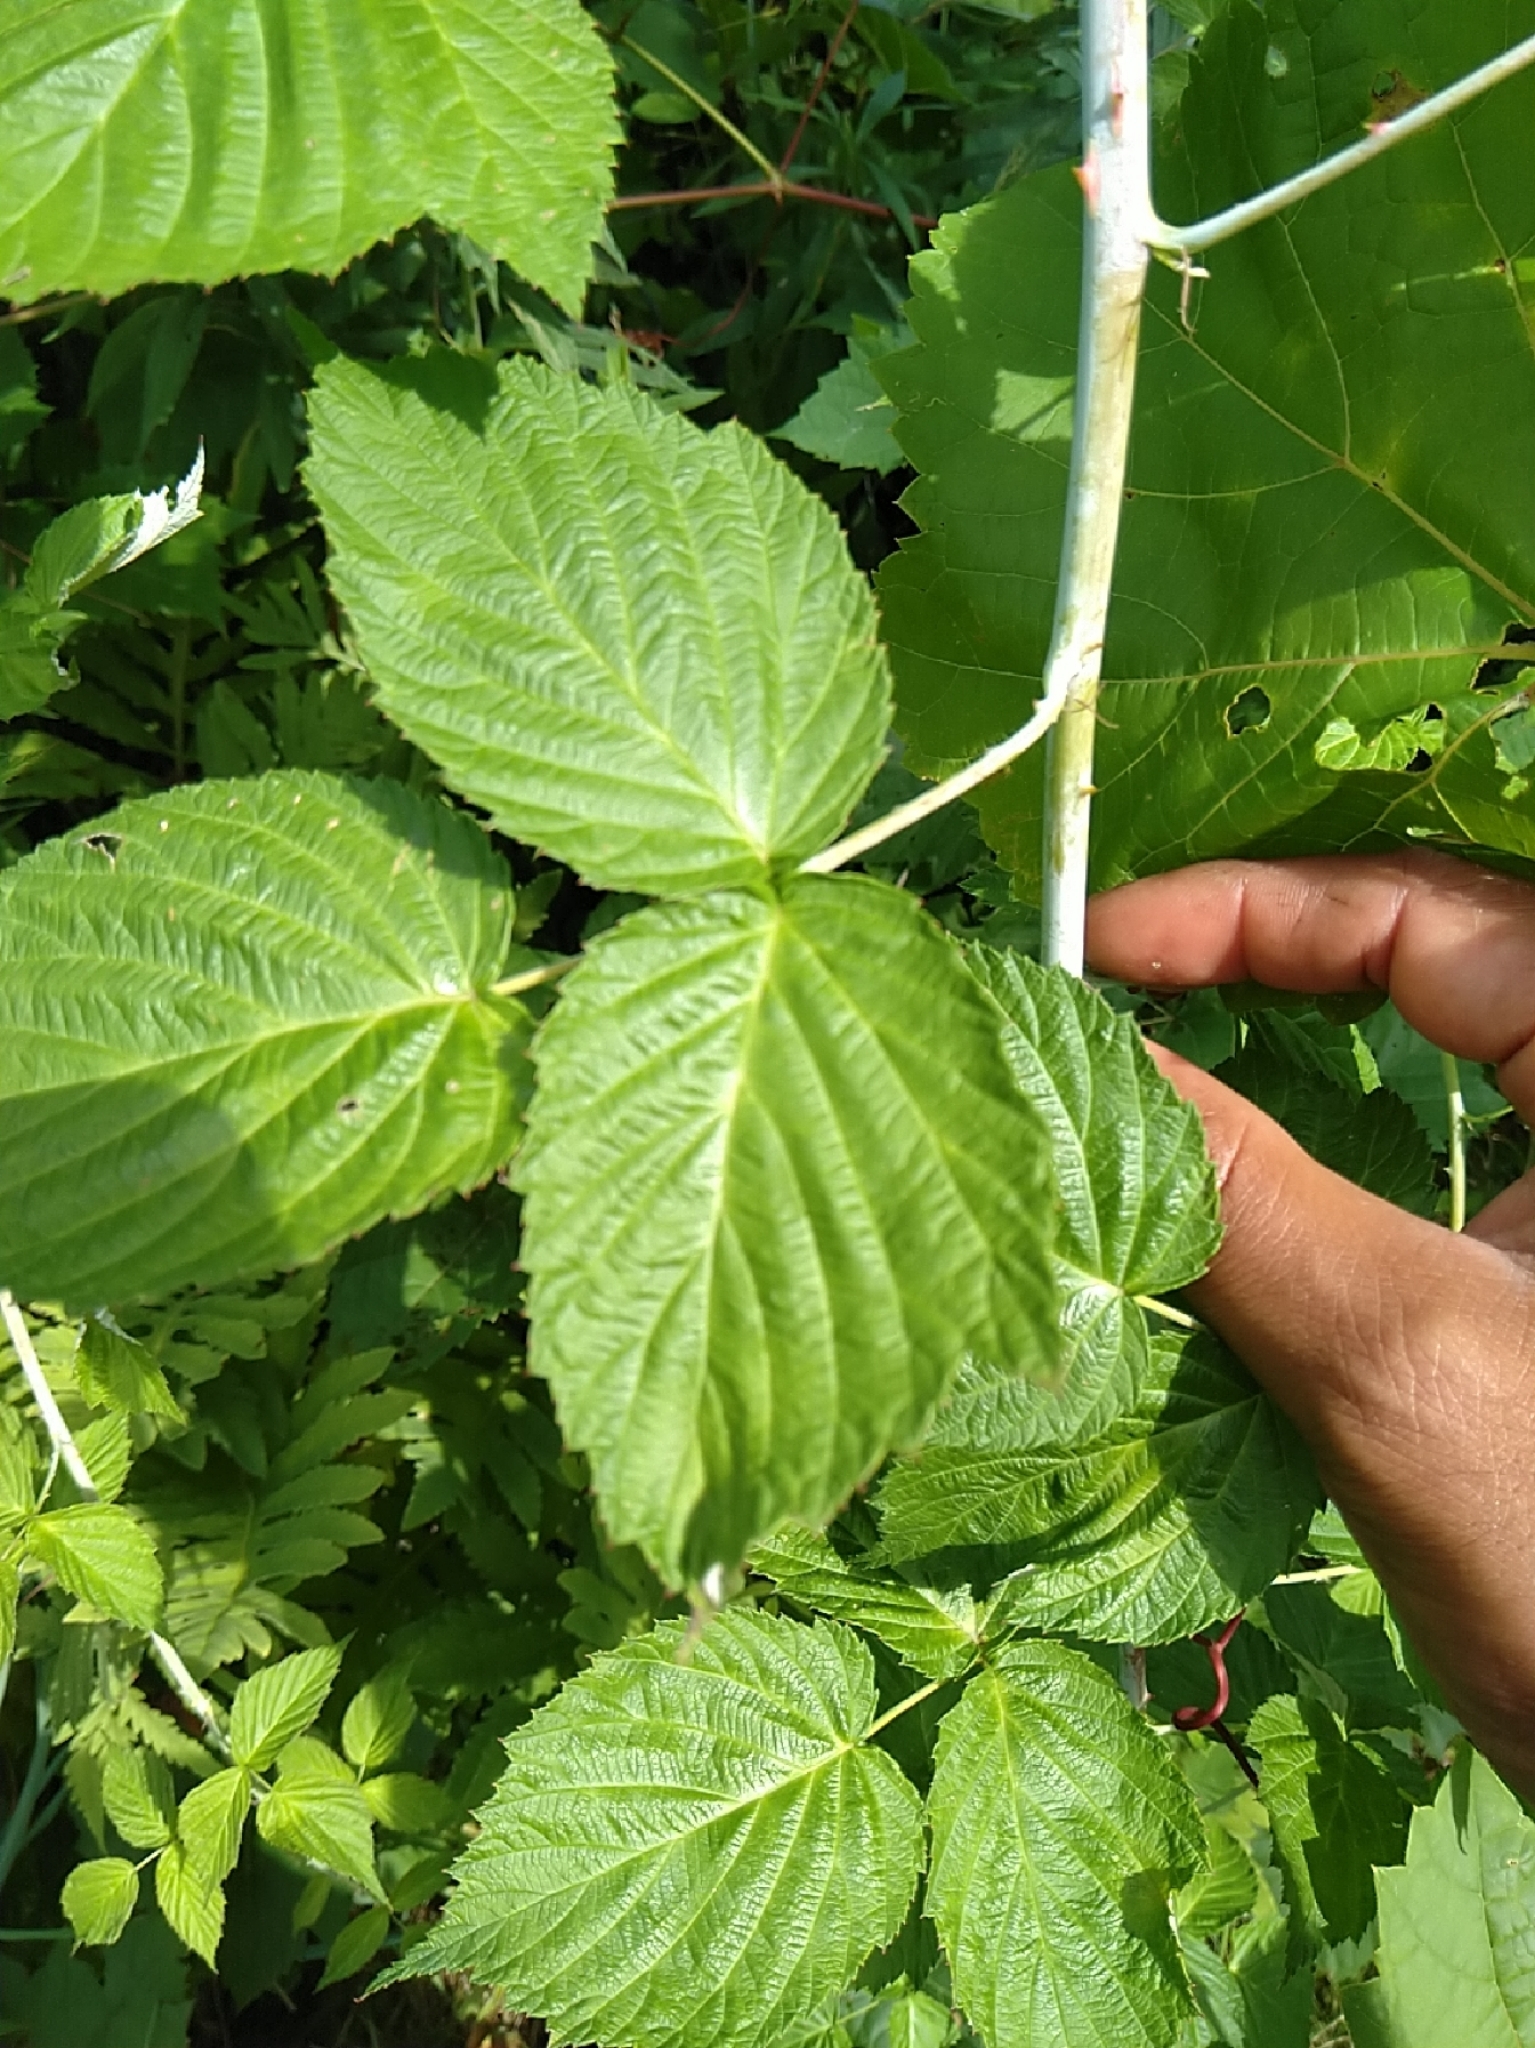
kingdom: Plantae
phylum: Tracheophyta
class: Magnoliopsida
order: Rosales
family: Rosaceae
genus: Rubus
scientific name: Rubus occidentalis
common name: Black raspberry
